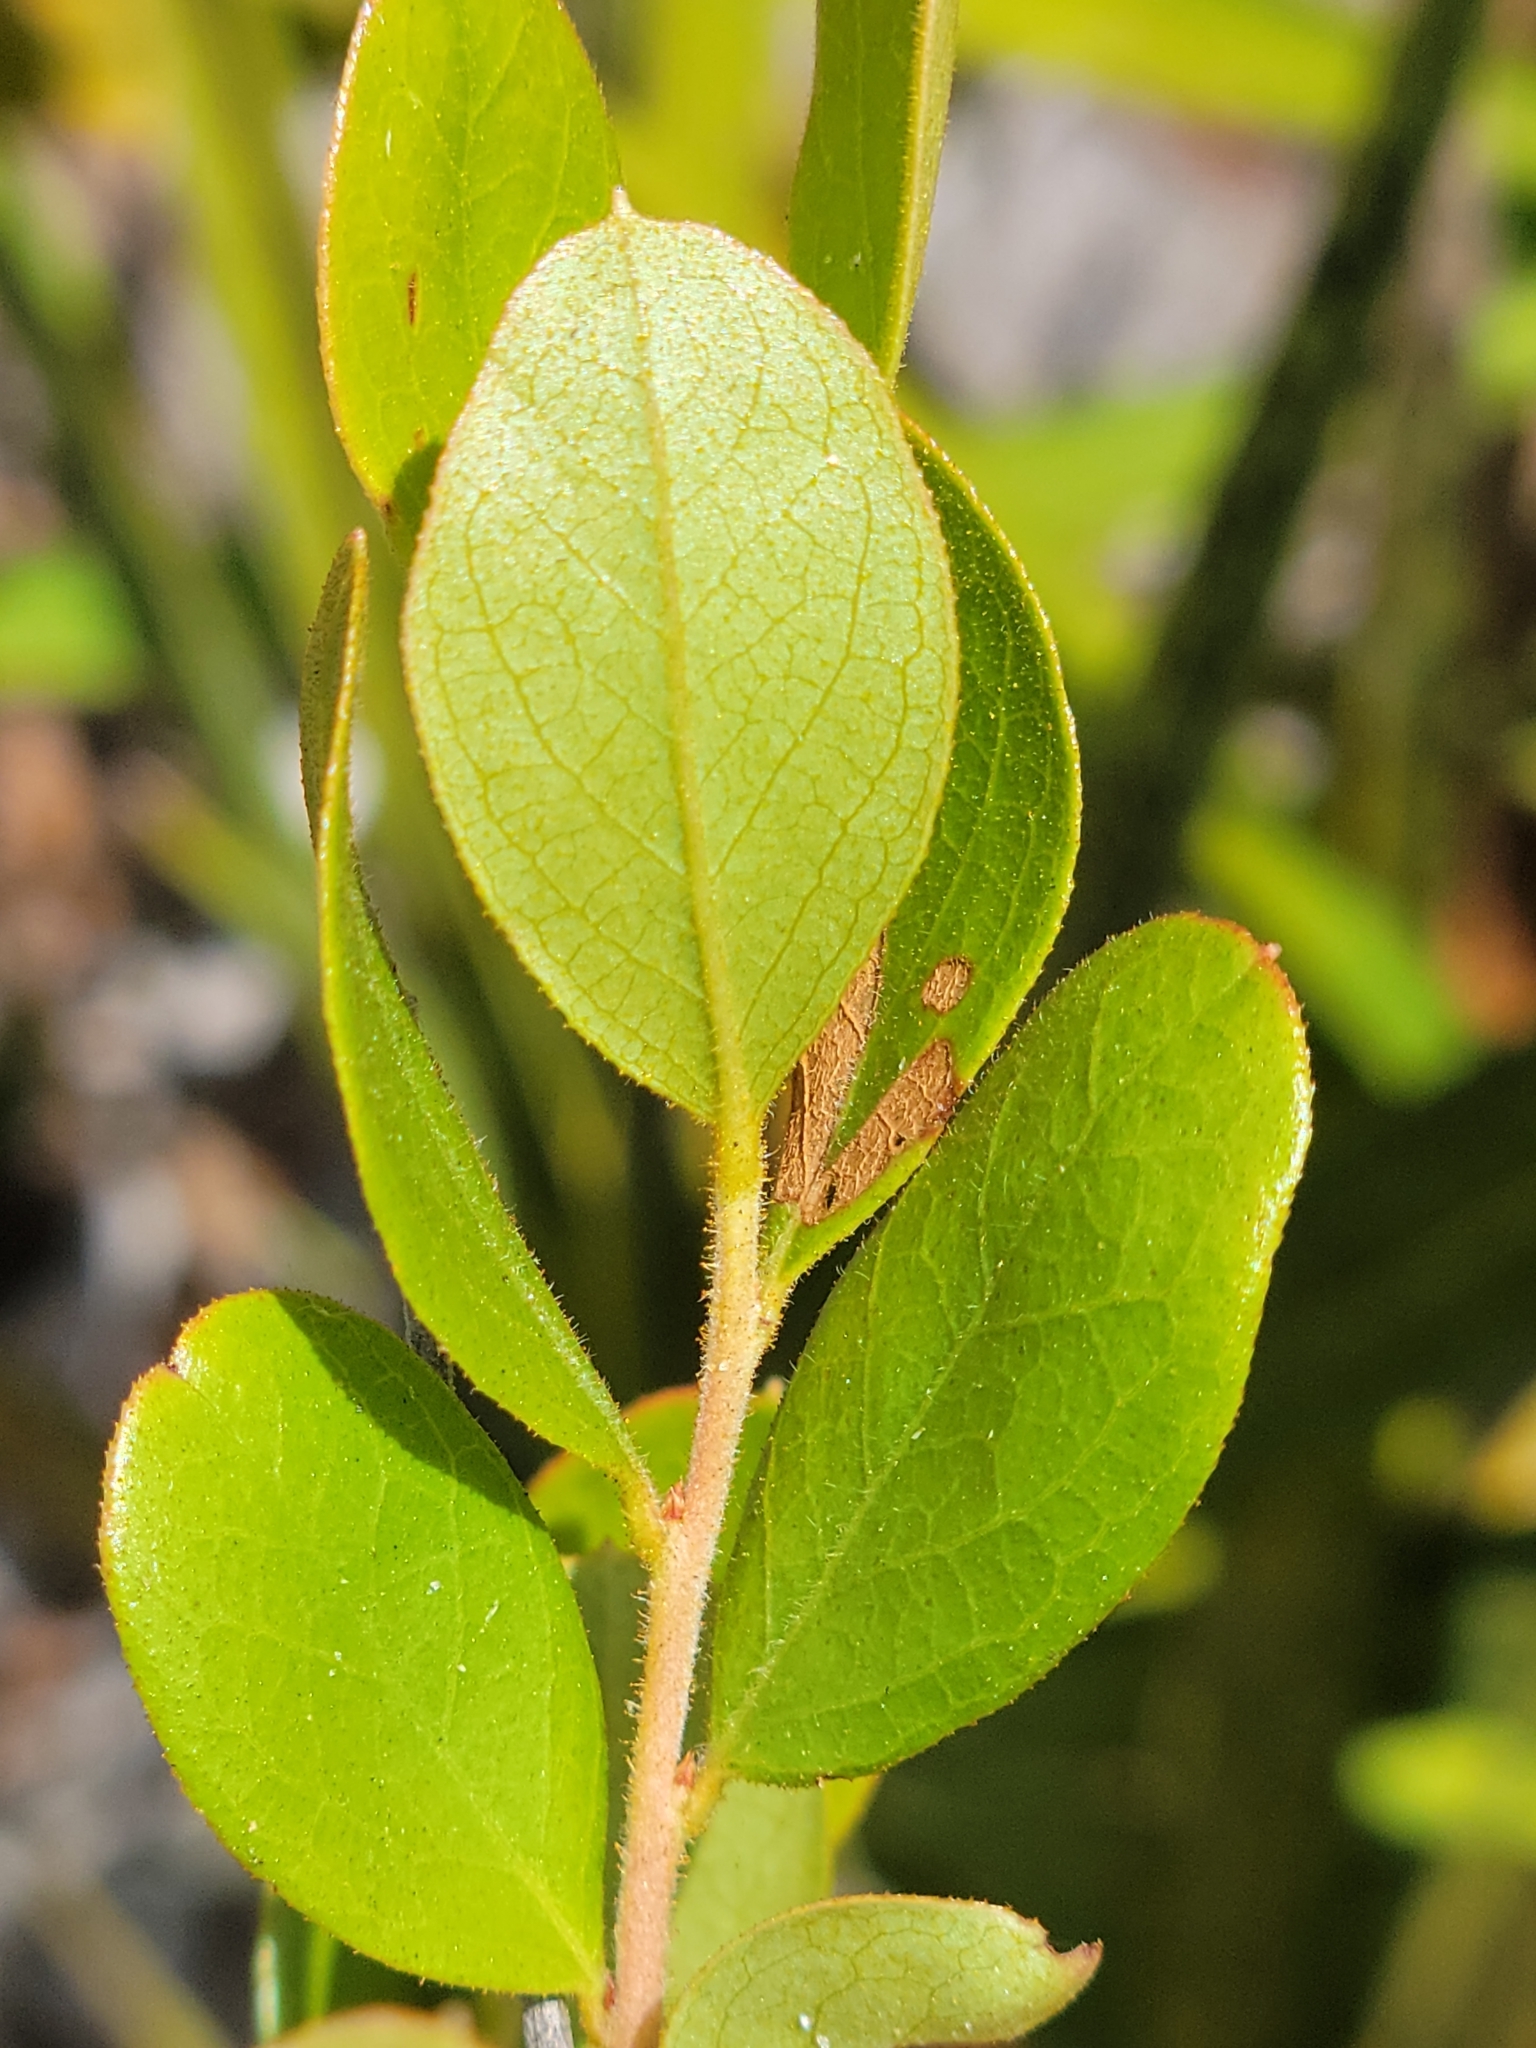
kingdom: Plantae
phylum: Tracheophyta
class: Magnoliopsida
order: Ericales
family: Ericaceae
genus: Gaylussacia
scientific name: Gaylussacia dumosa
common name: Dwarf huckleberry
